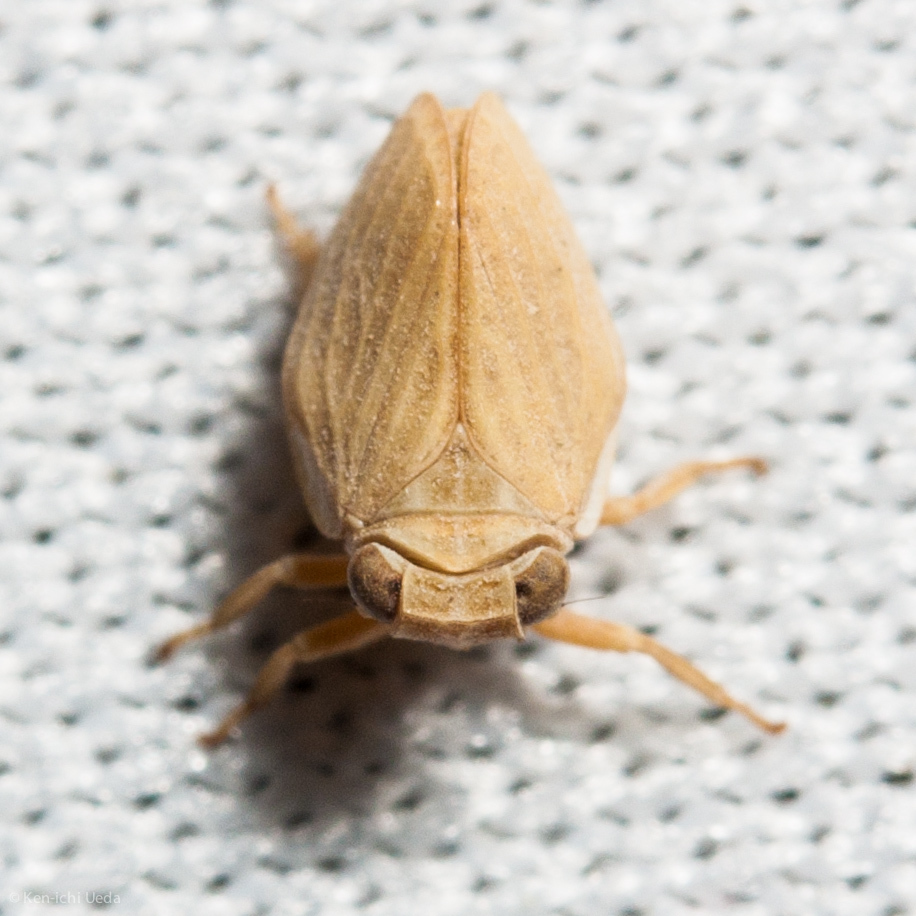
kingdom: Animalia
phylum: Arthropoda
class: Insecta
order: Hemiptera
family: Issidae
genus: Agalmatium
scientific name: Agalmatium bilobum
